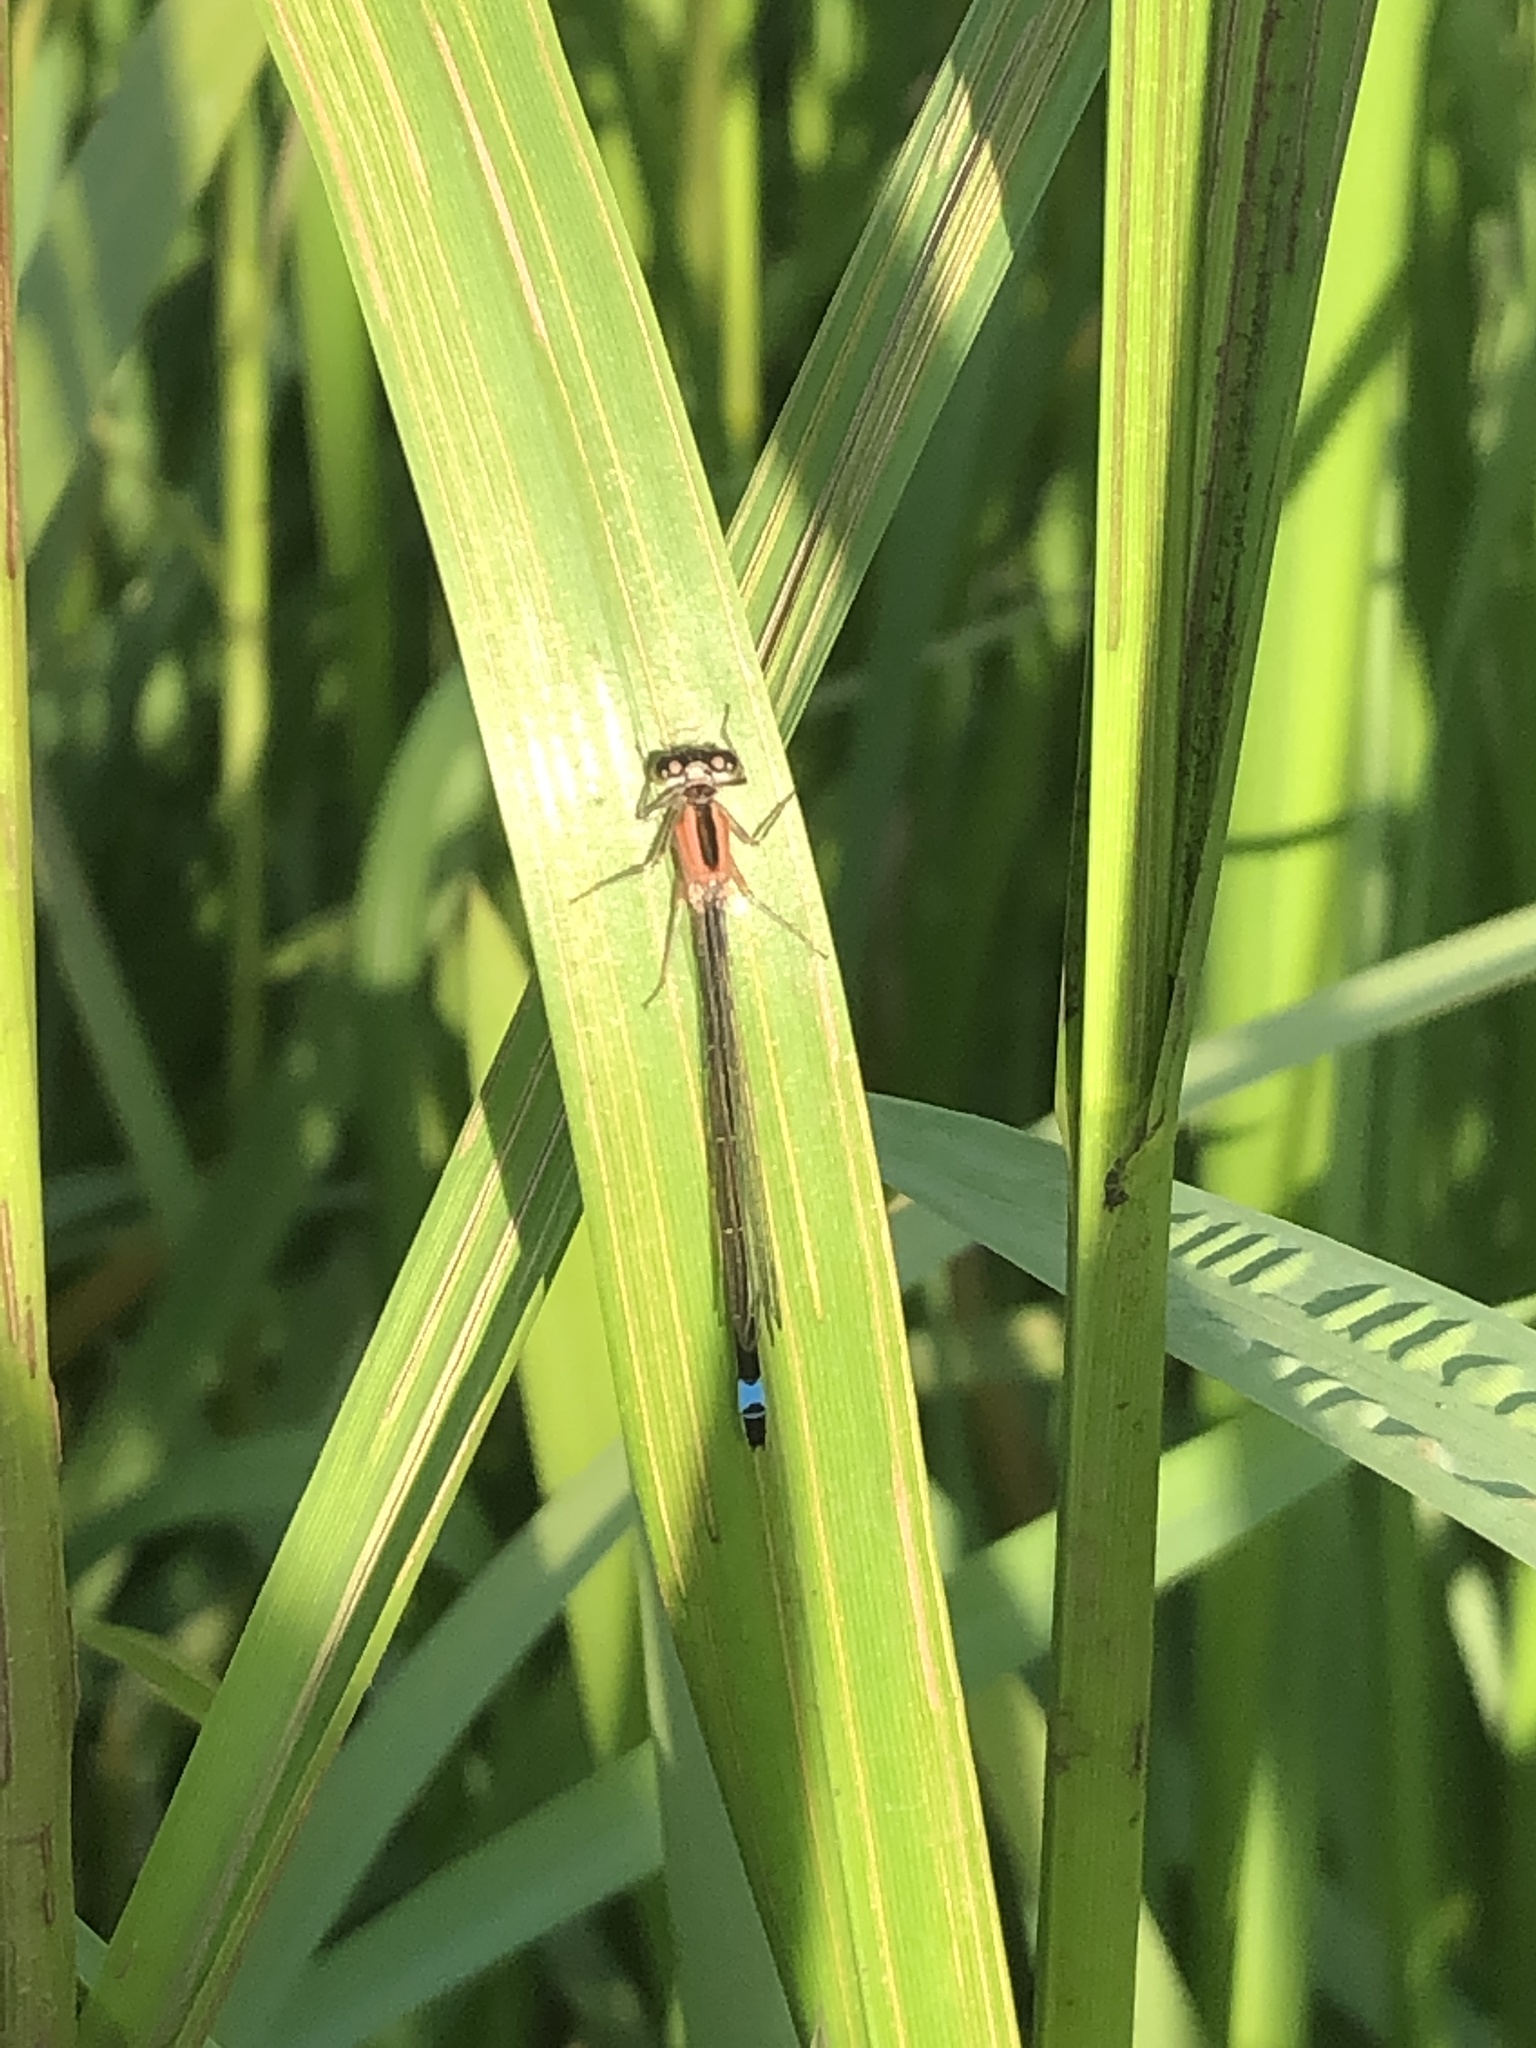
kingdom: Animalia
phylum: Arthropoda
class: Insecta
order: Odonata
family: Coenagrionidae
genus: Ischnura
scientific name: Ischnura elegans
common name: Blue-tailed damselfly
